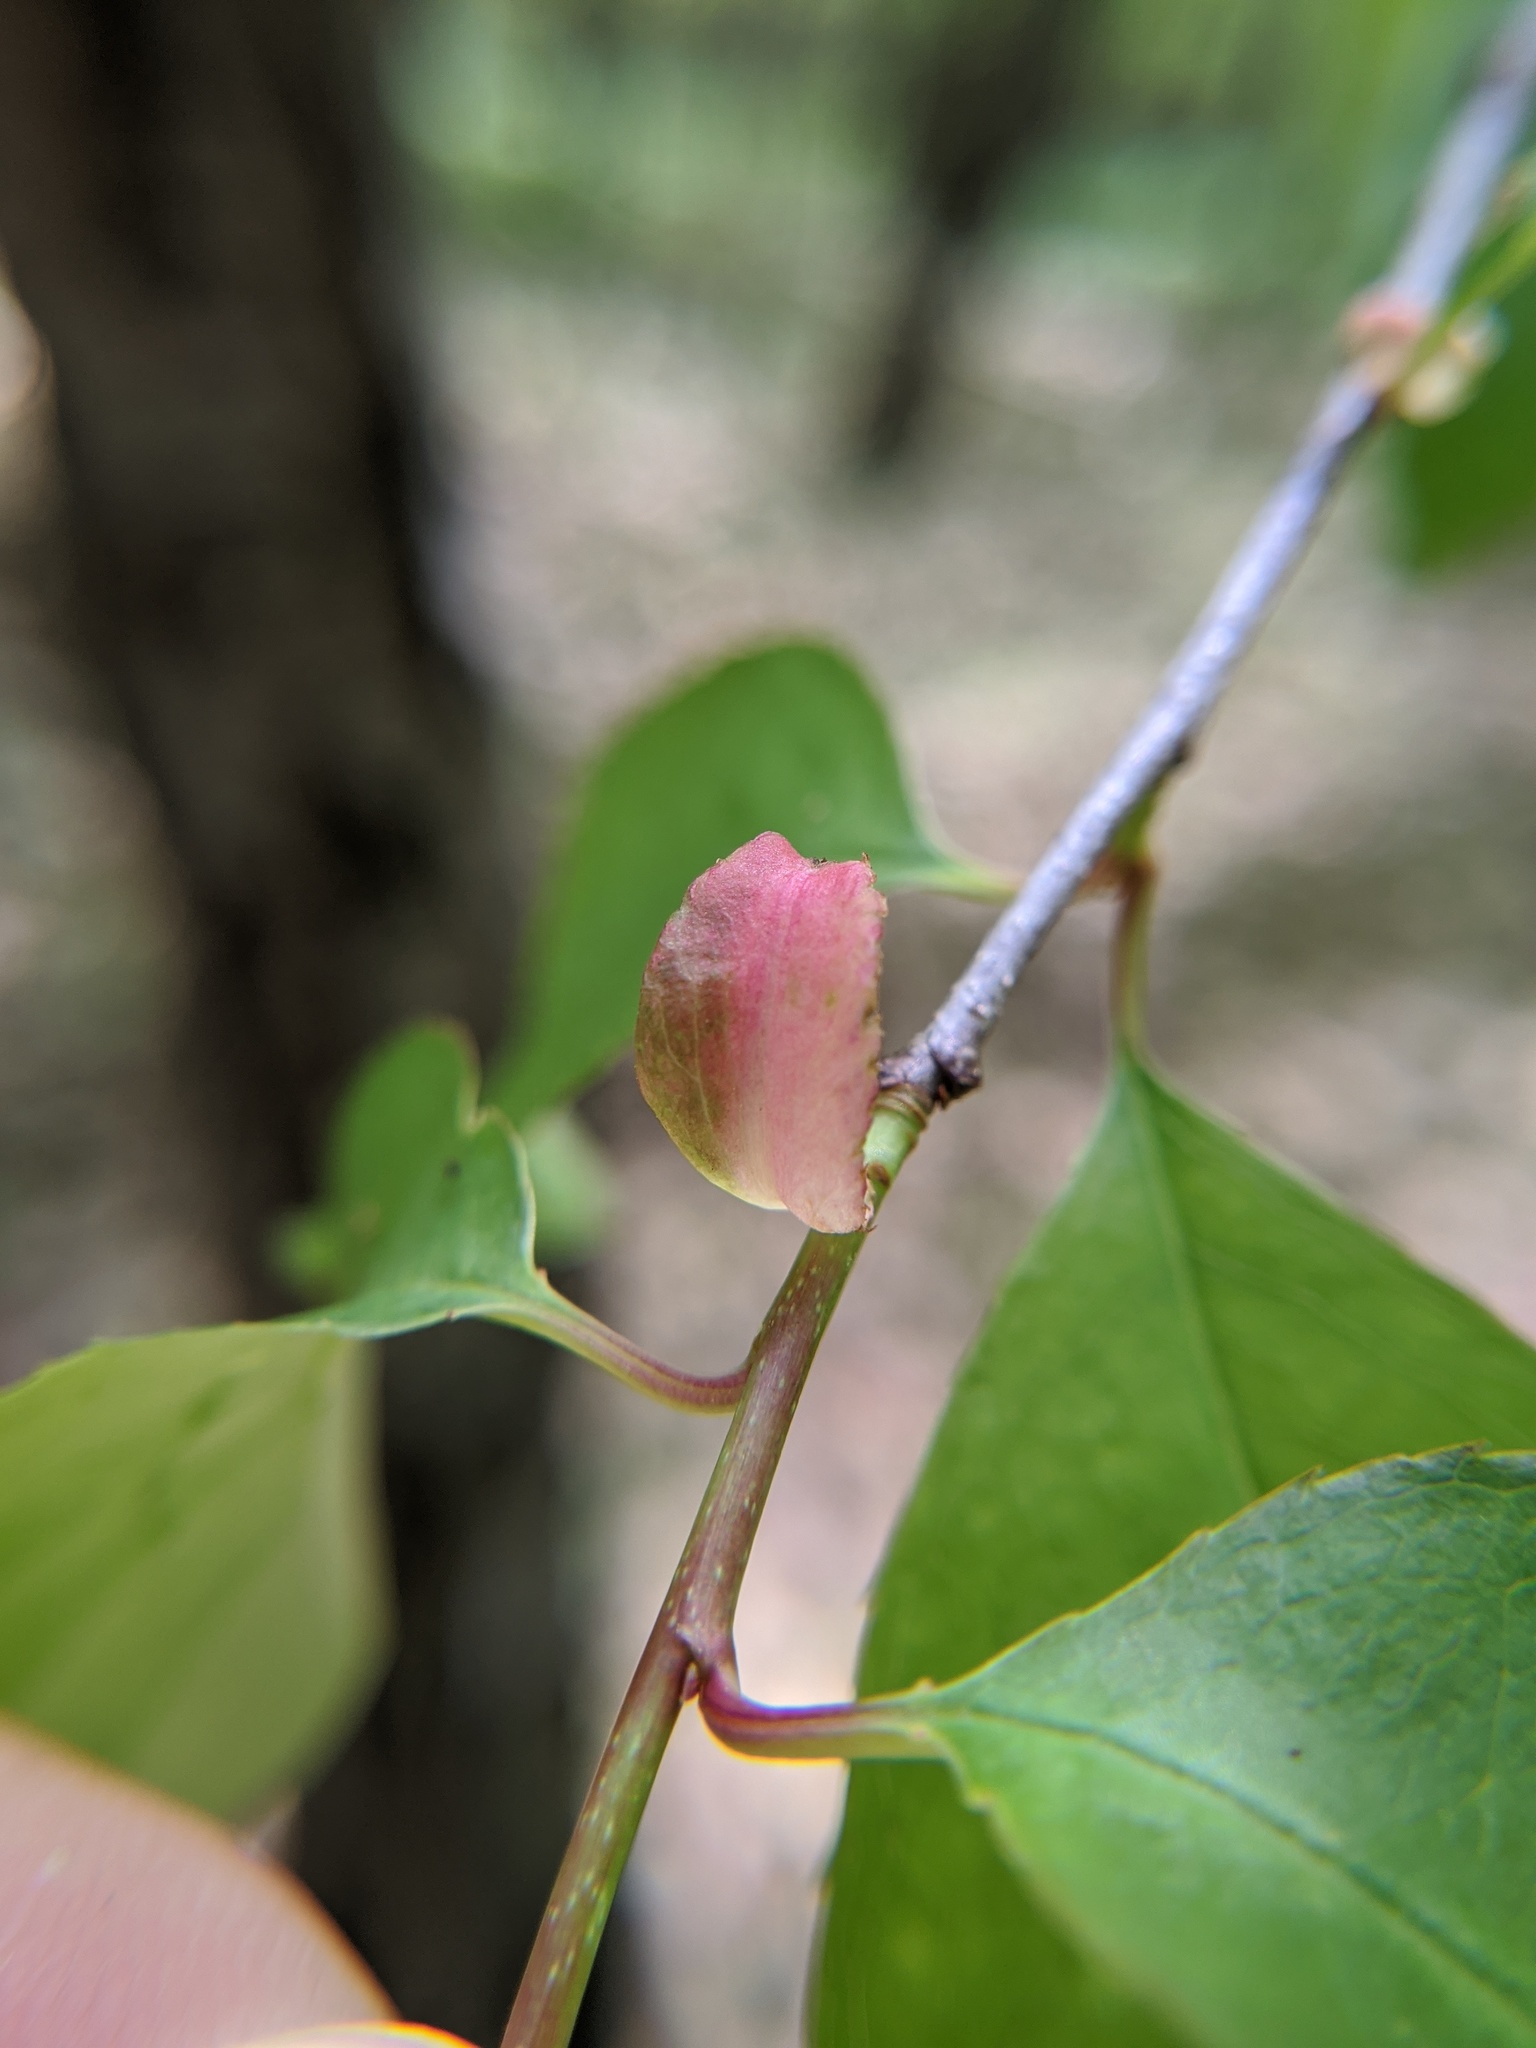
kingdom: Plantae
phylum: Tracheophyta
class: Magnoliopsida
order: Rosales
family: Rosaceae
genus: Prunus
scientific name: Prunus serotina
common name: Black cherry
